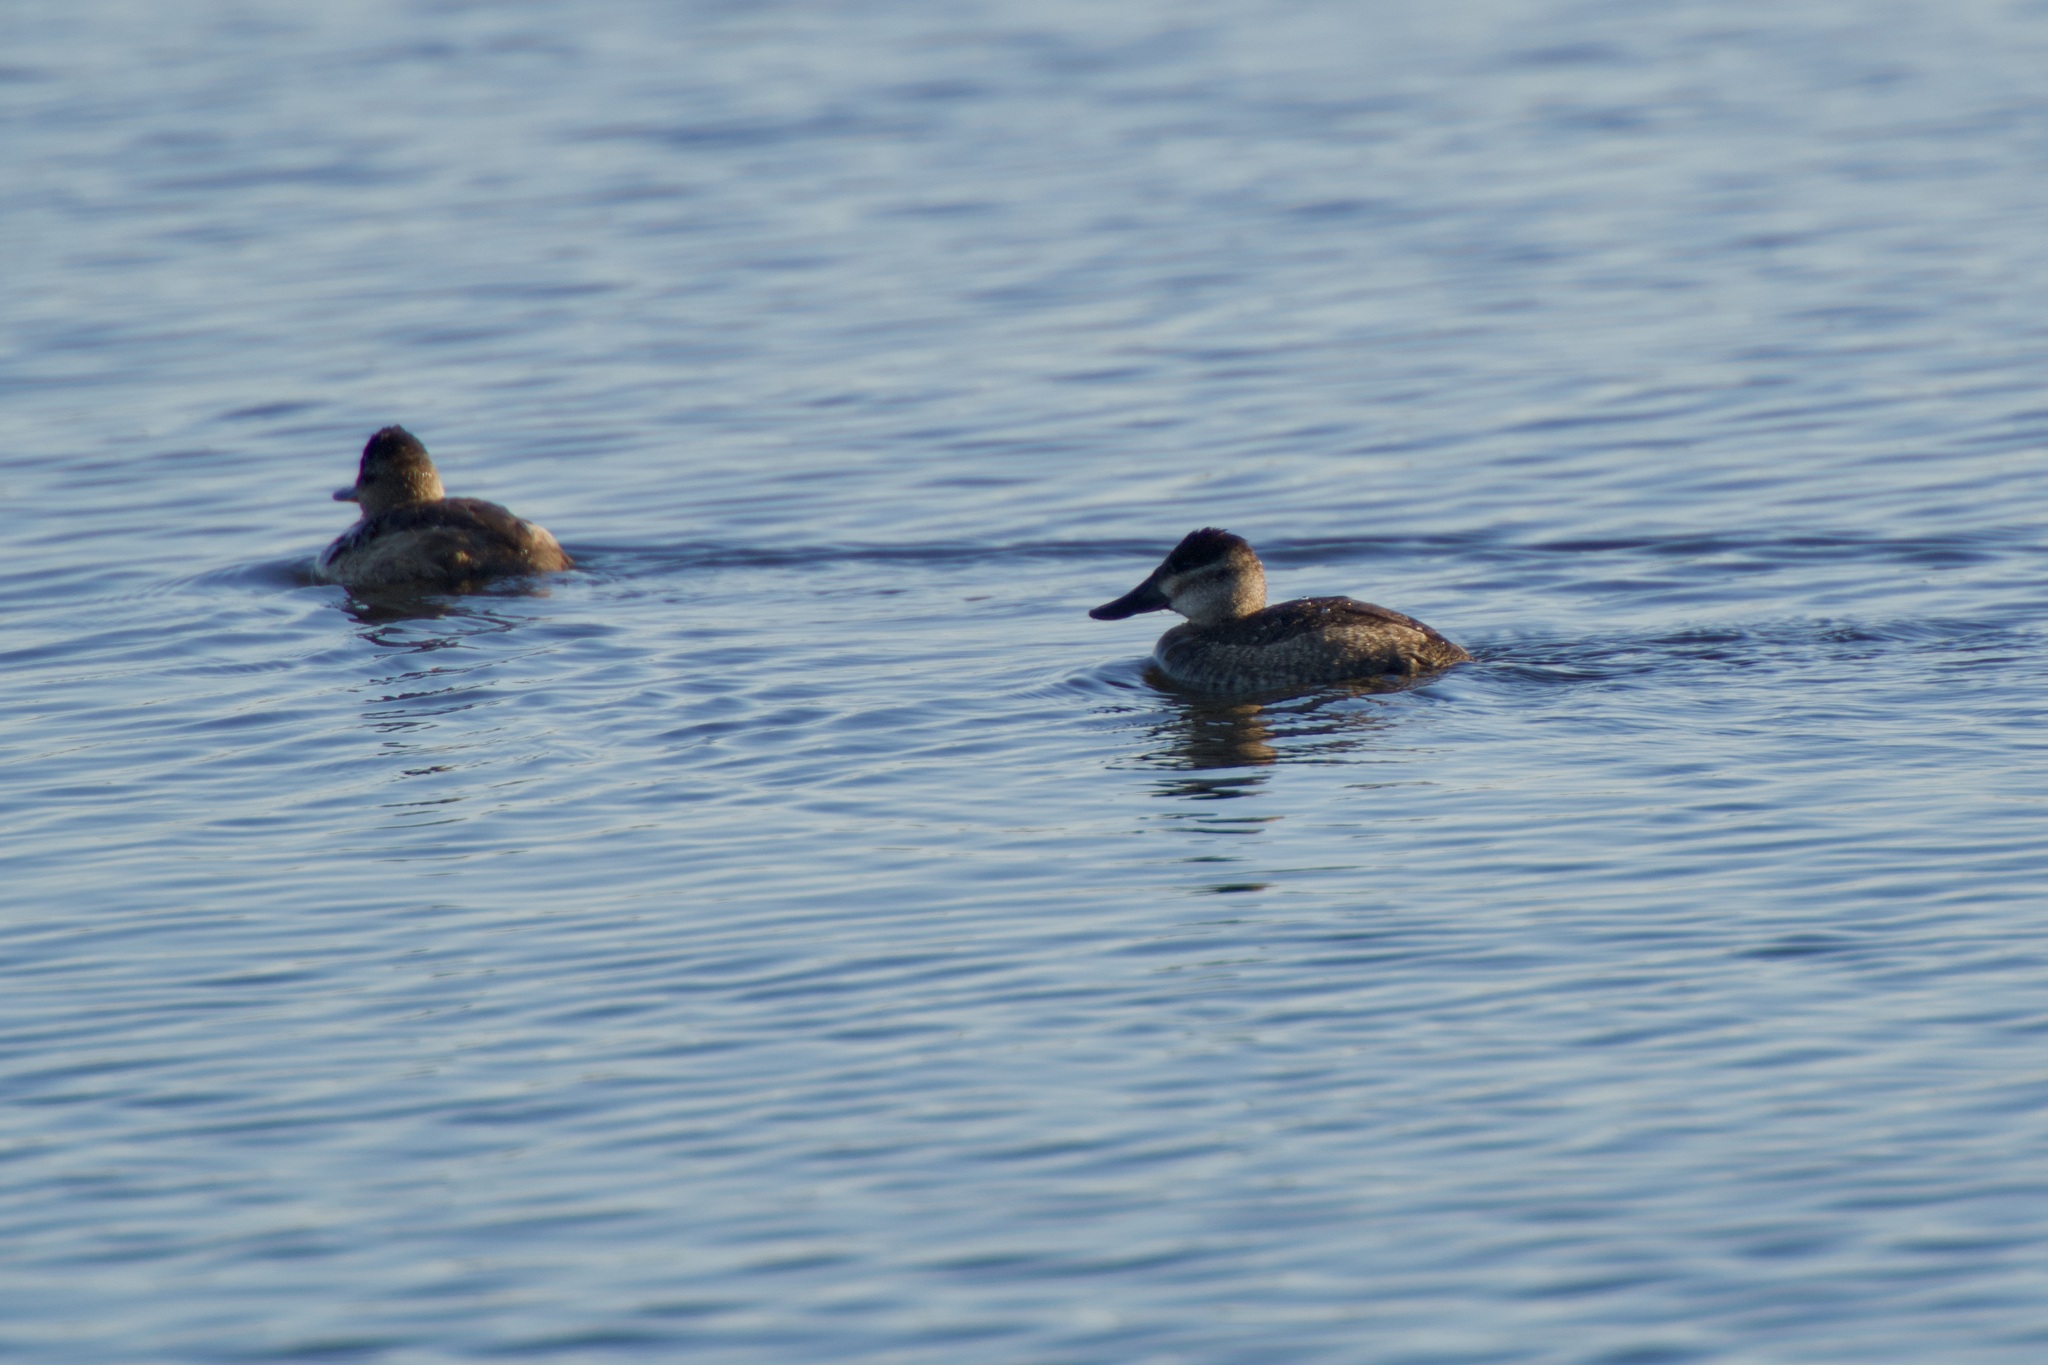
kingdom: Animalia
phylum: Chordata
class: Aves
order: Anseriformes
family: Anatidae
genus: Oxyura
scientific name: Oxyura jamaicensis
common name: Ruddy duck
